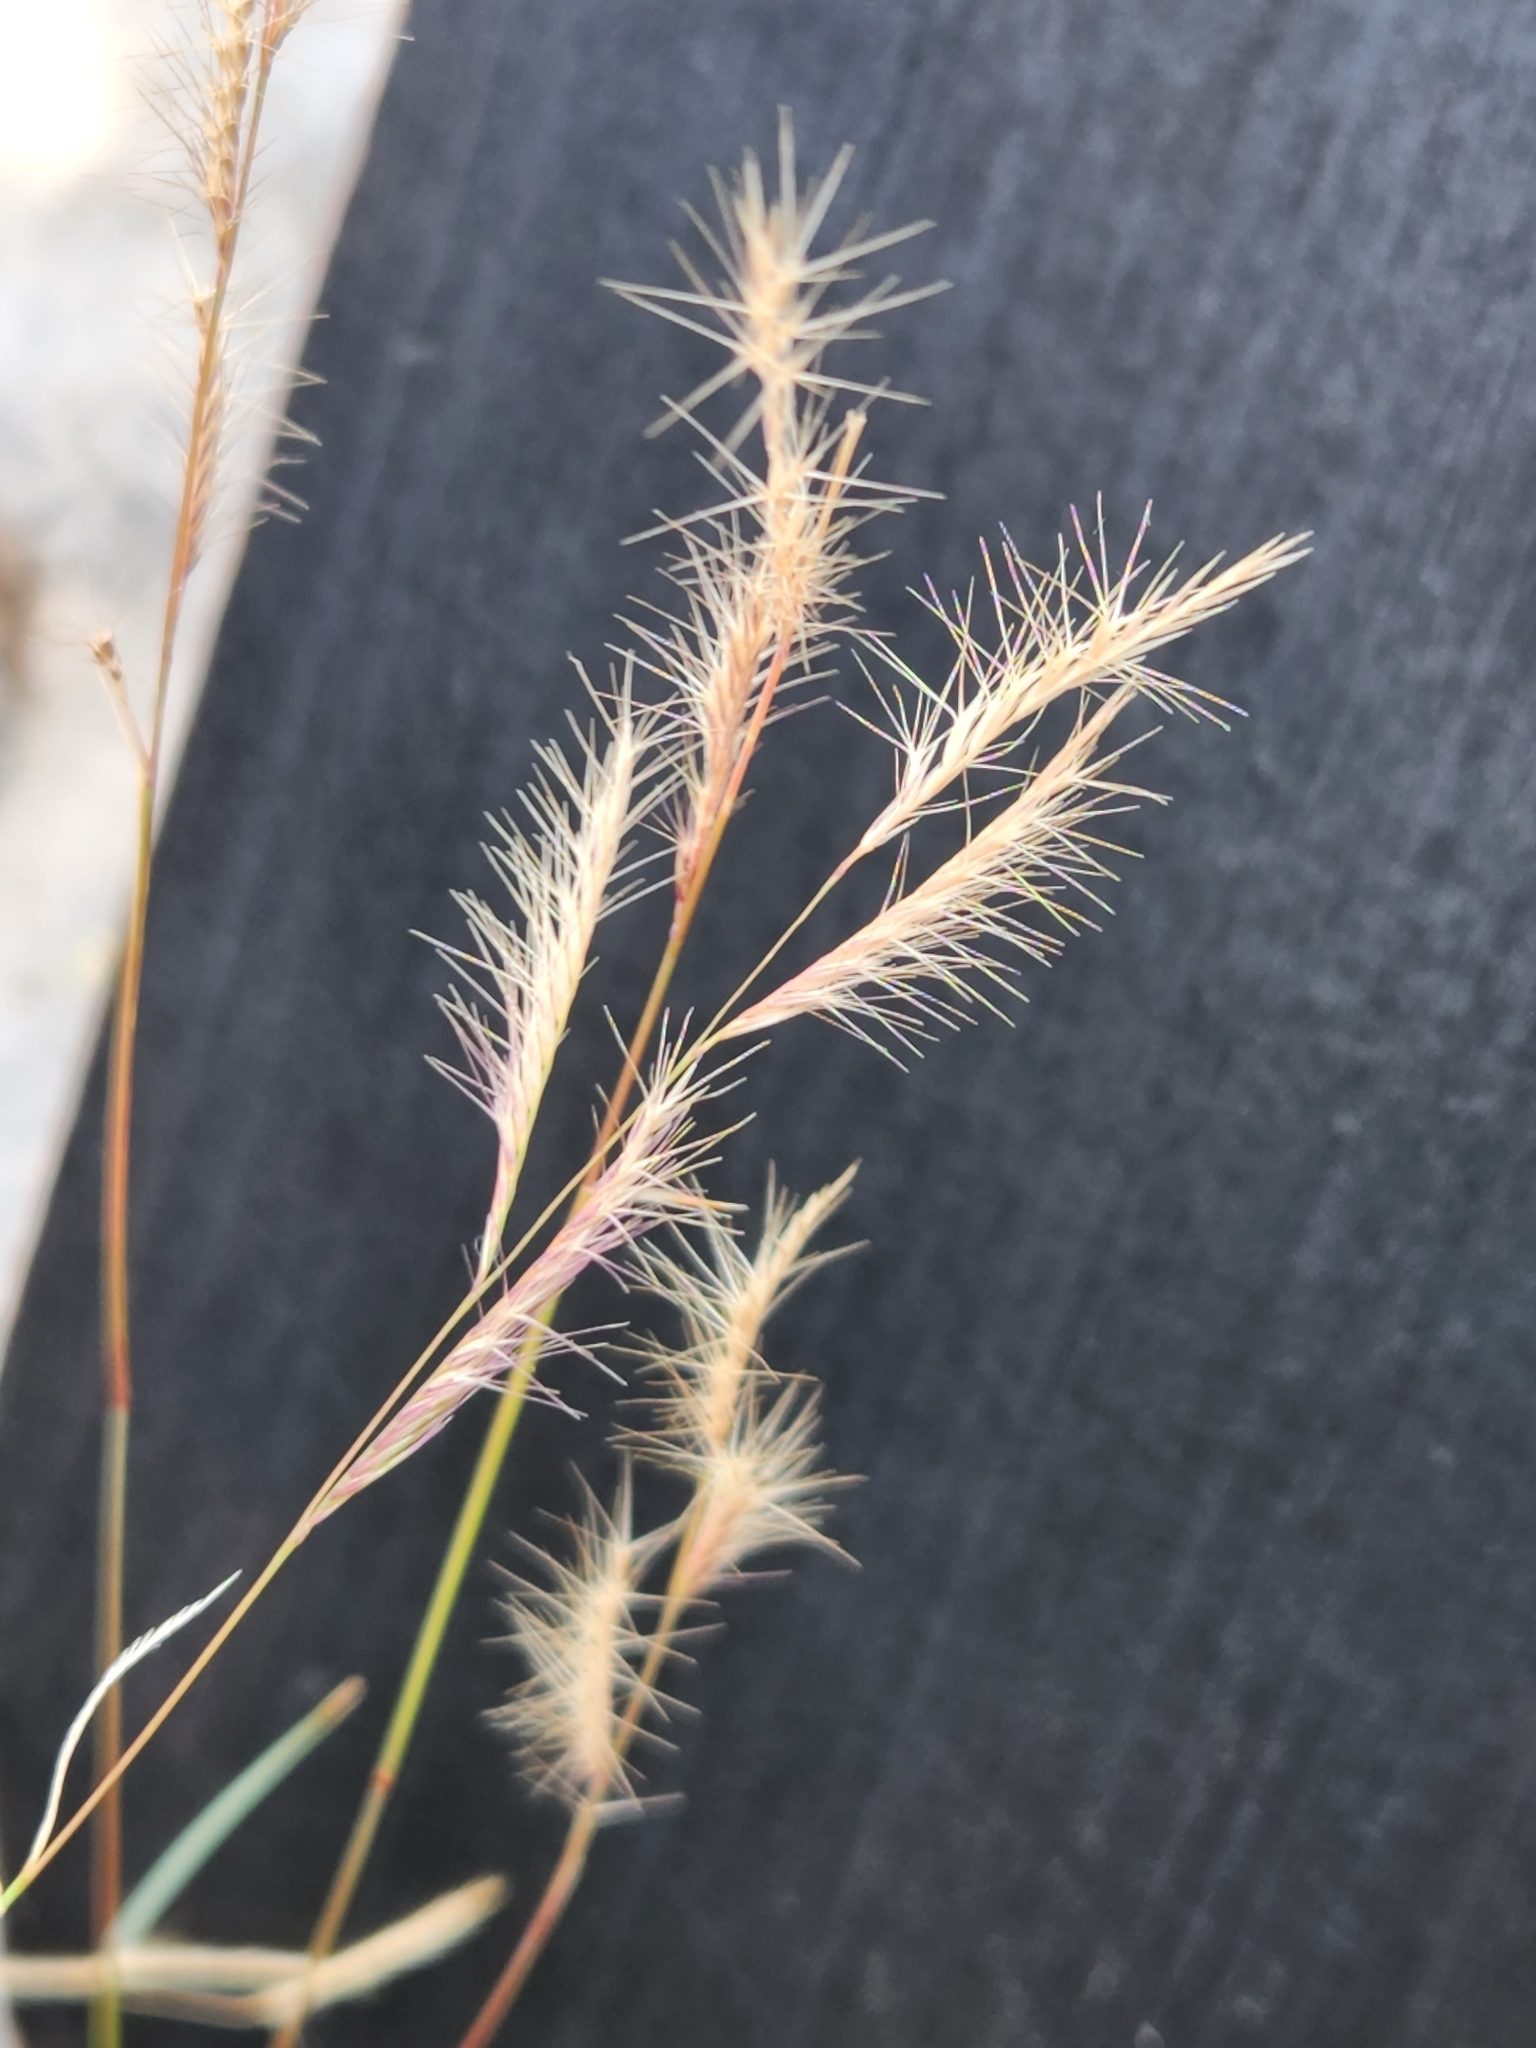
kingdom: Plantae
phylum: Tracheophyta
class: Liliopsida
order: Poales
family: Poaceae
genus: Bouteloua
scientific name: Bouteloua trifida
